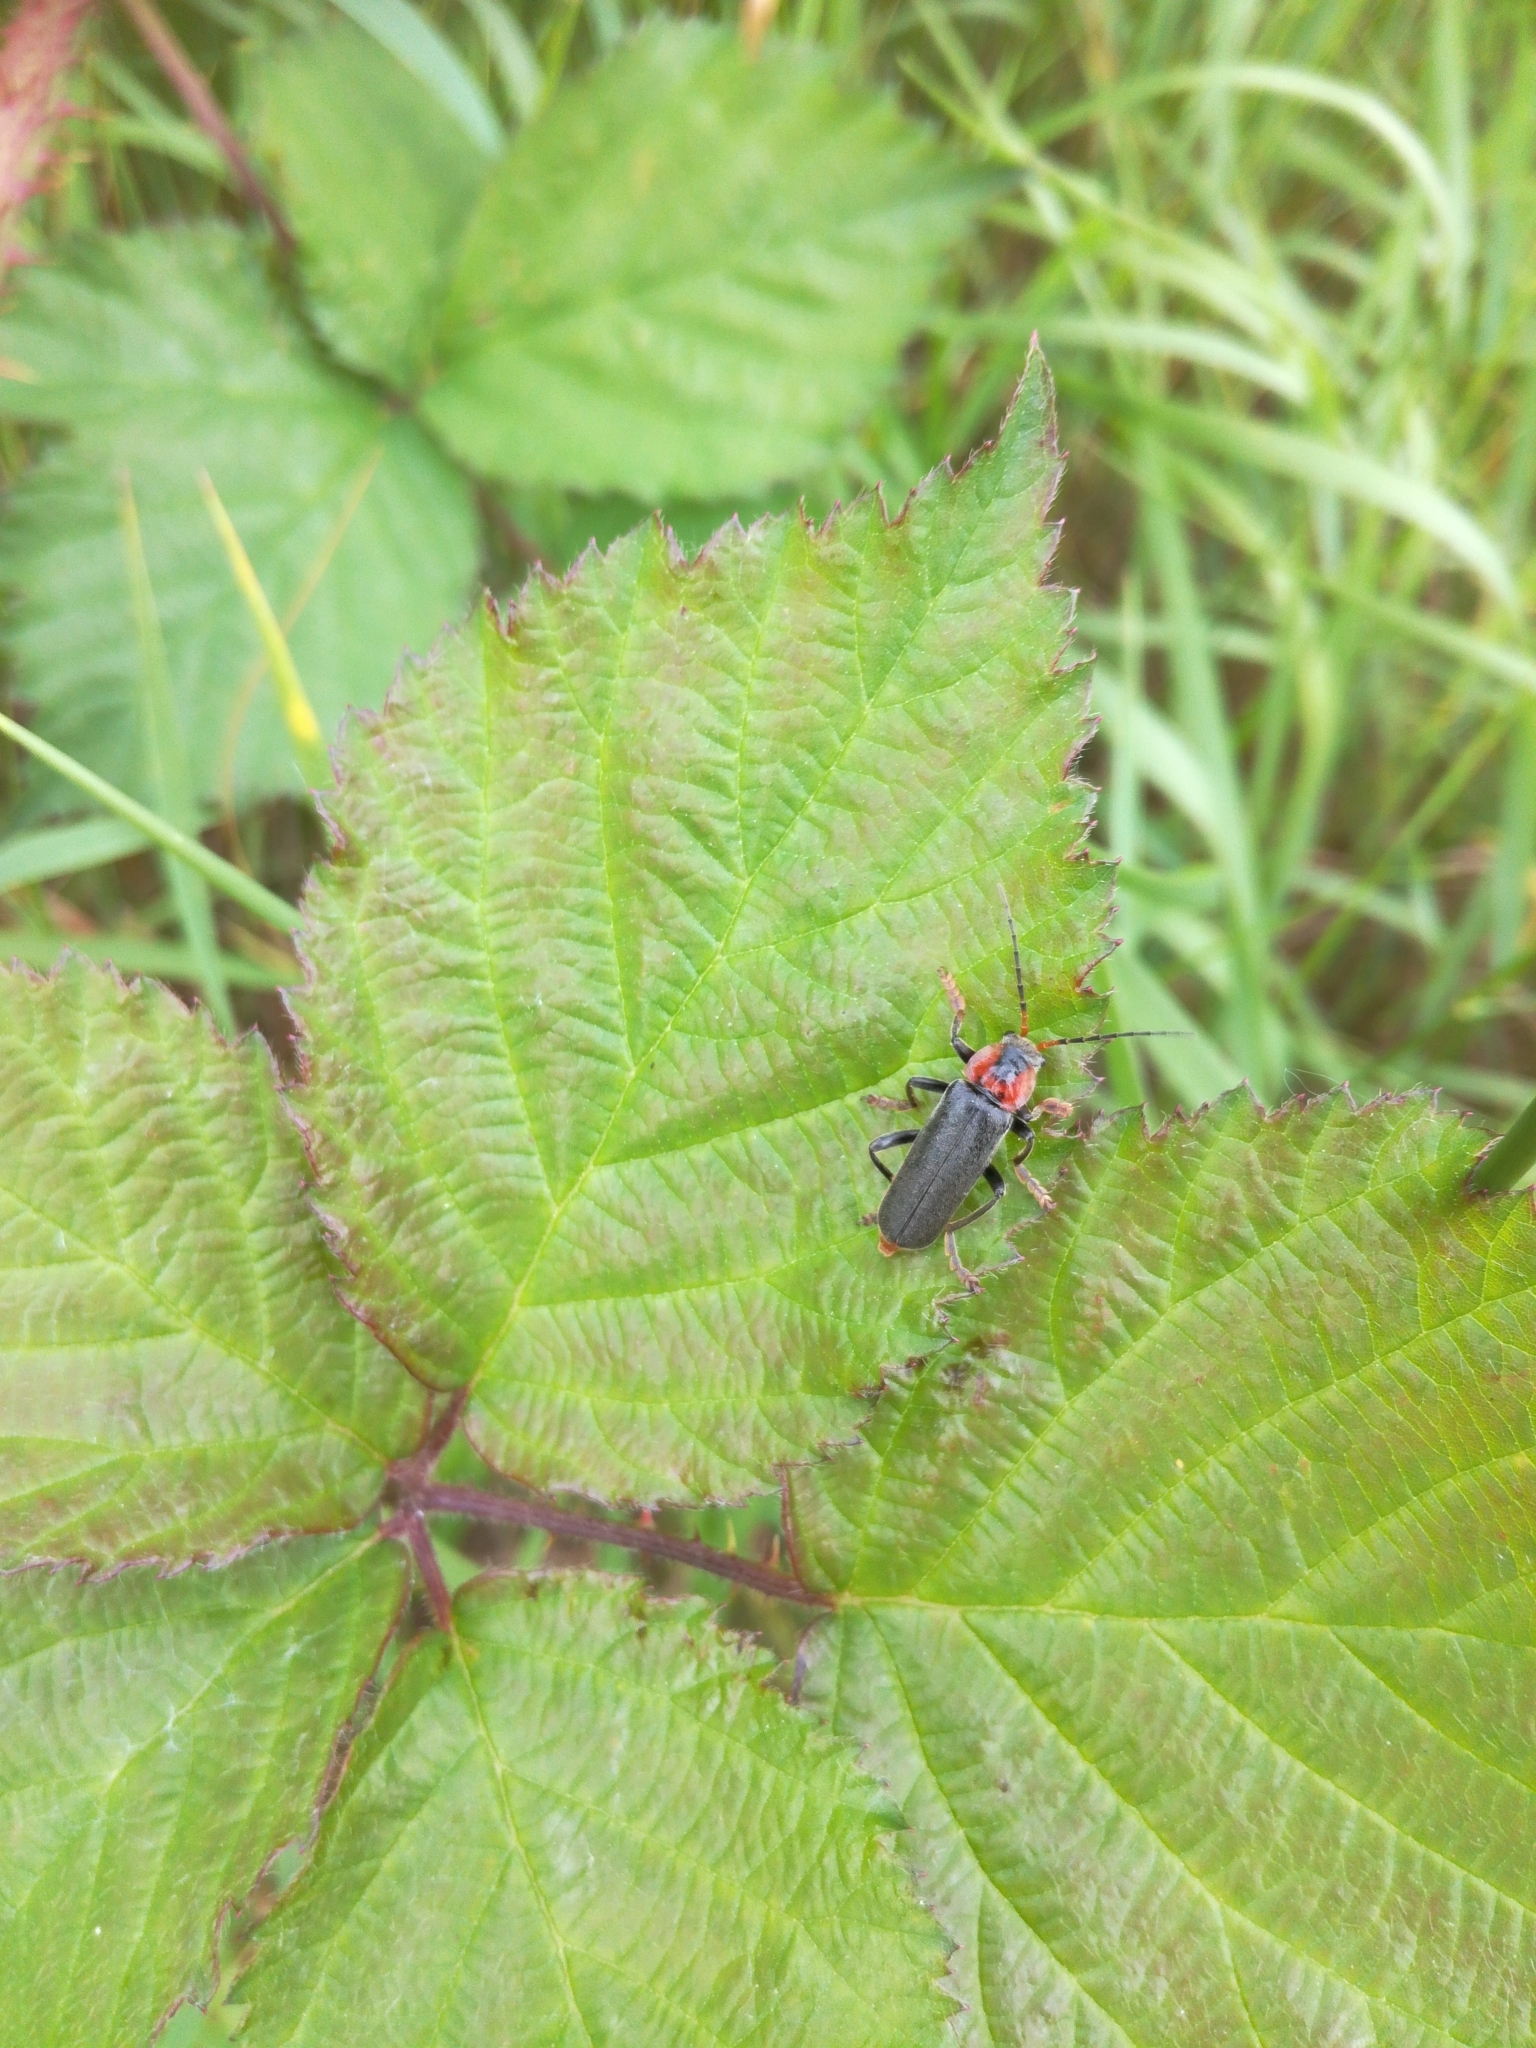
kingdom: Animalia
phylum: Arthropoda
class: Insecta
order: Coleoptera
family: Cantharidae
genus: Cantharis
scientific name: Cantharis fusca
